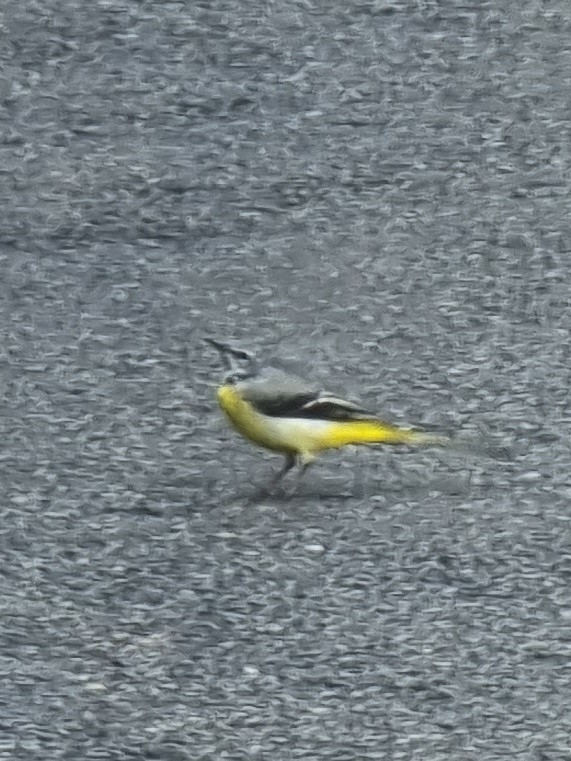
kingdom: Animalia
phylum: Chordata
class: Aves
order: Passeriformes
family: Motacillidae
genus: Motacilla
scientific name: Motacilla cinerea
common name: Grey wagtail
